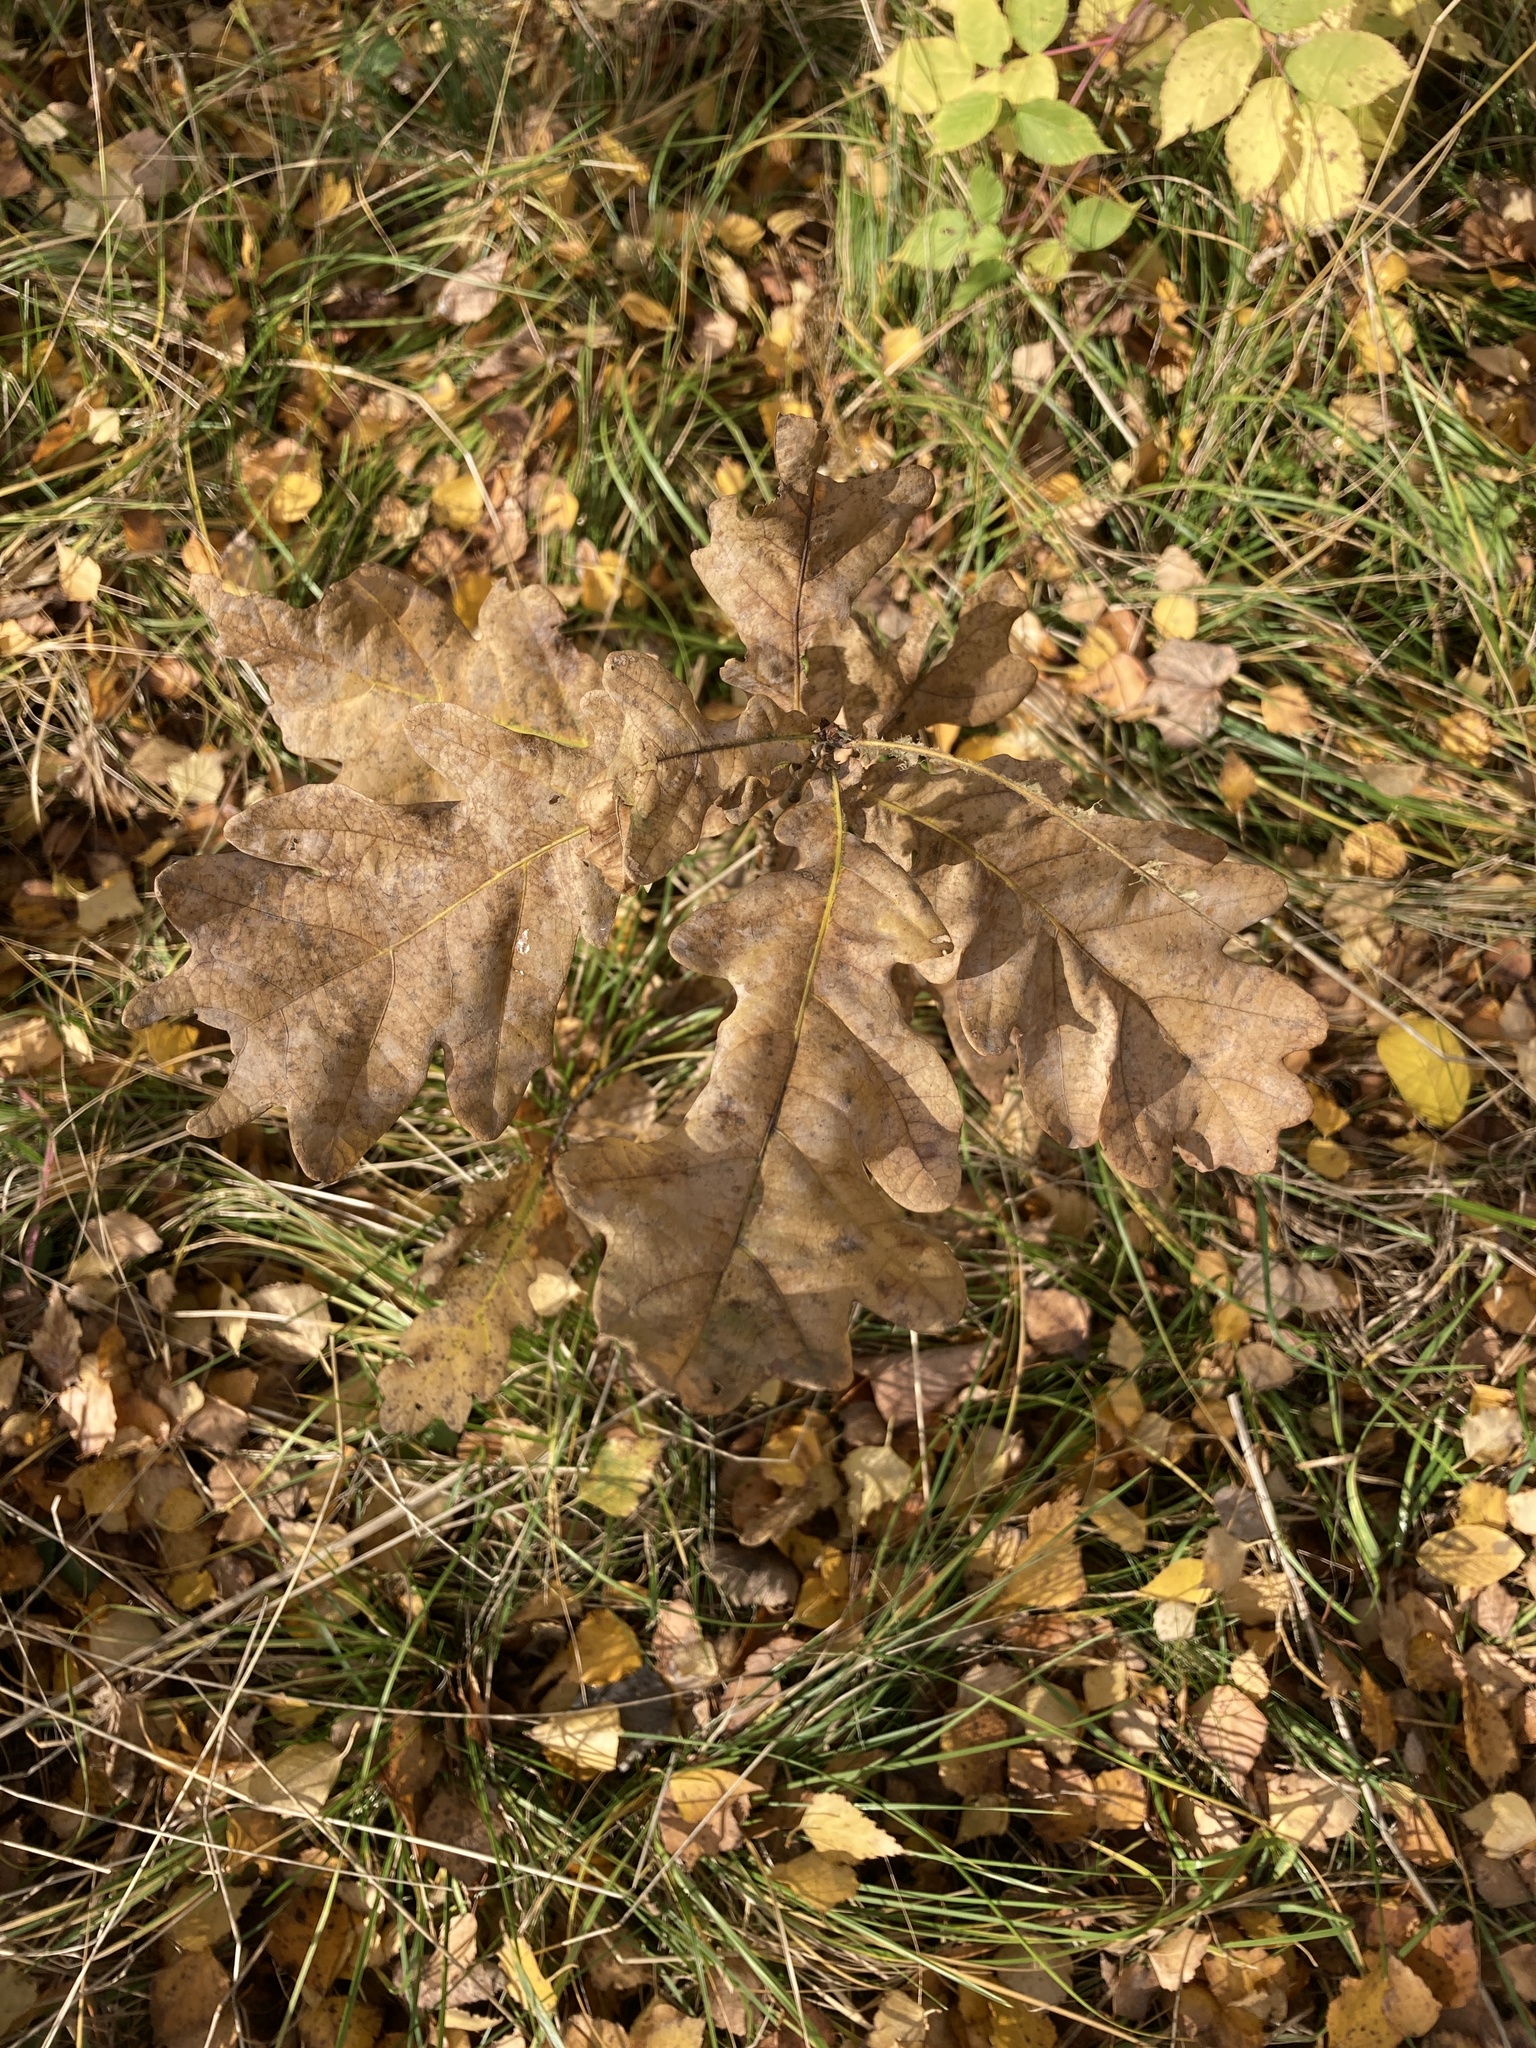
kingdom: Plantae
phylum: Tracheophyta
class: Magnoliopsida
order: Fagales
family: Fagaceae
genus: Quercus
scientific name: Quercus robur
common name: Pedunculate oak
